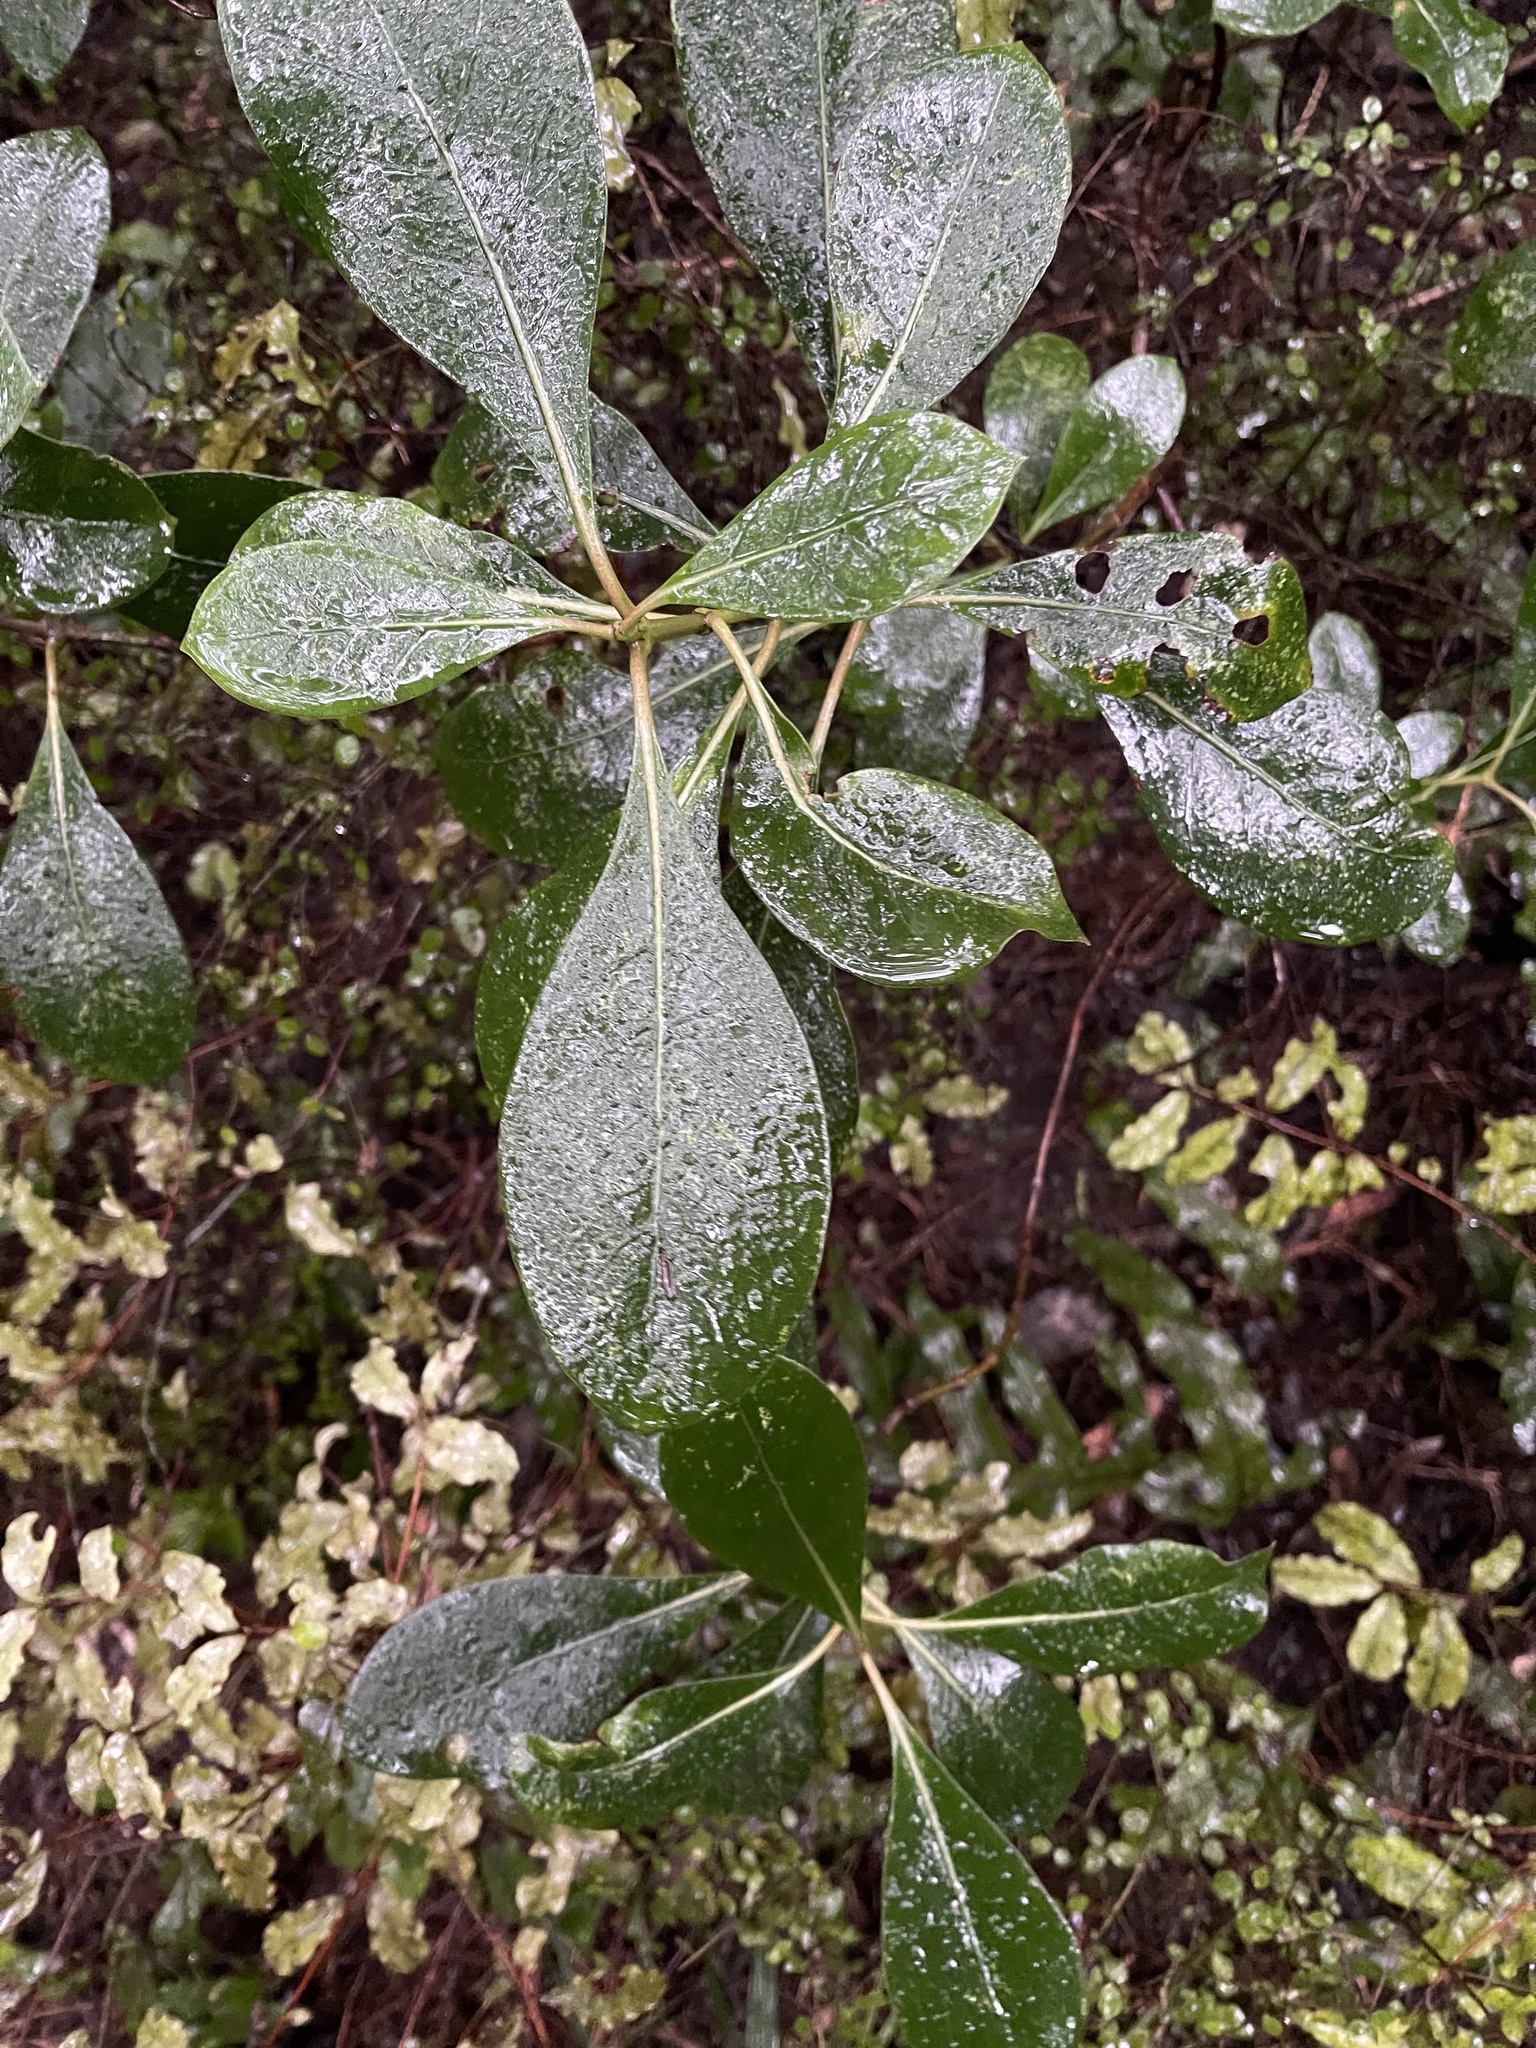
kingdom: Plantae
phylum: Tracheophyta
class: Magnoliopsida
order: Gentianales
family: Rubiaceae
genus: Coprosma
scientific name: Coprosma lucida
